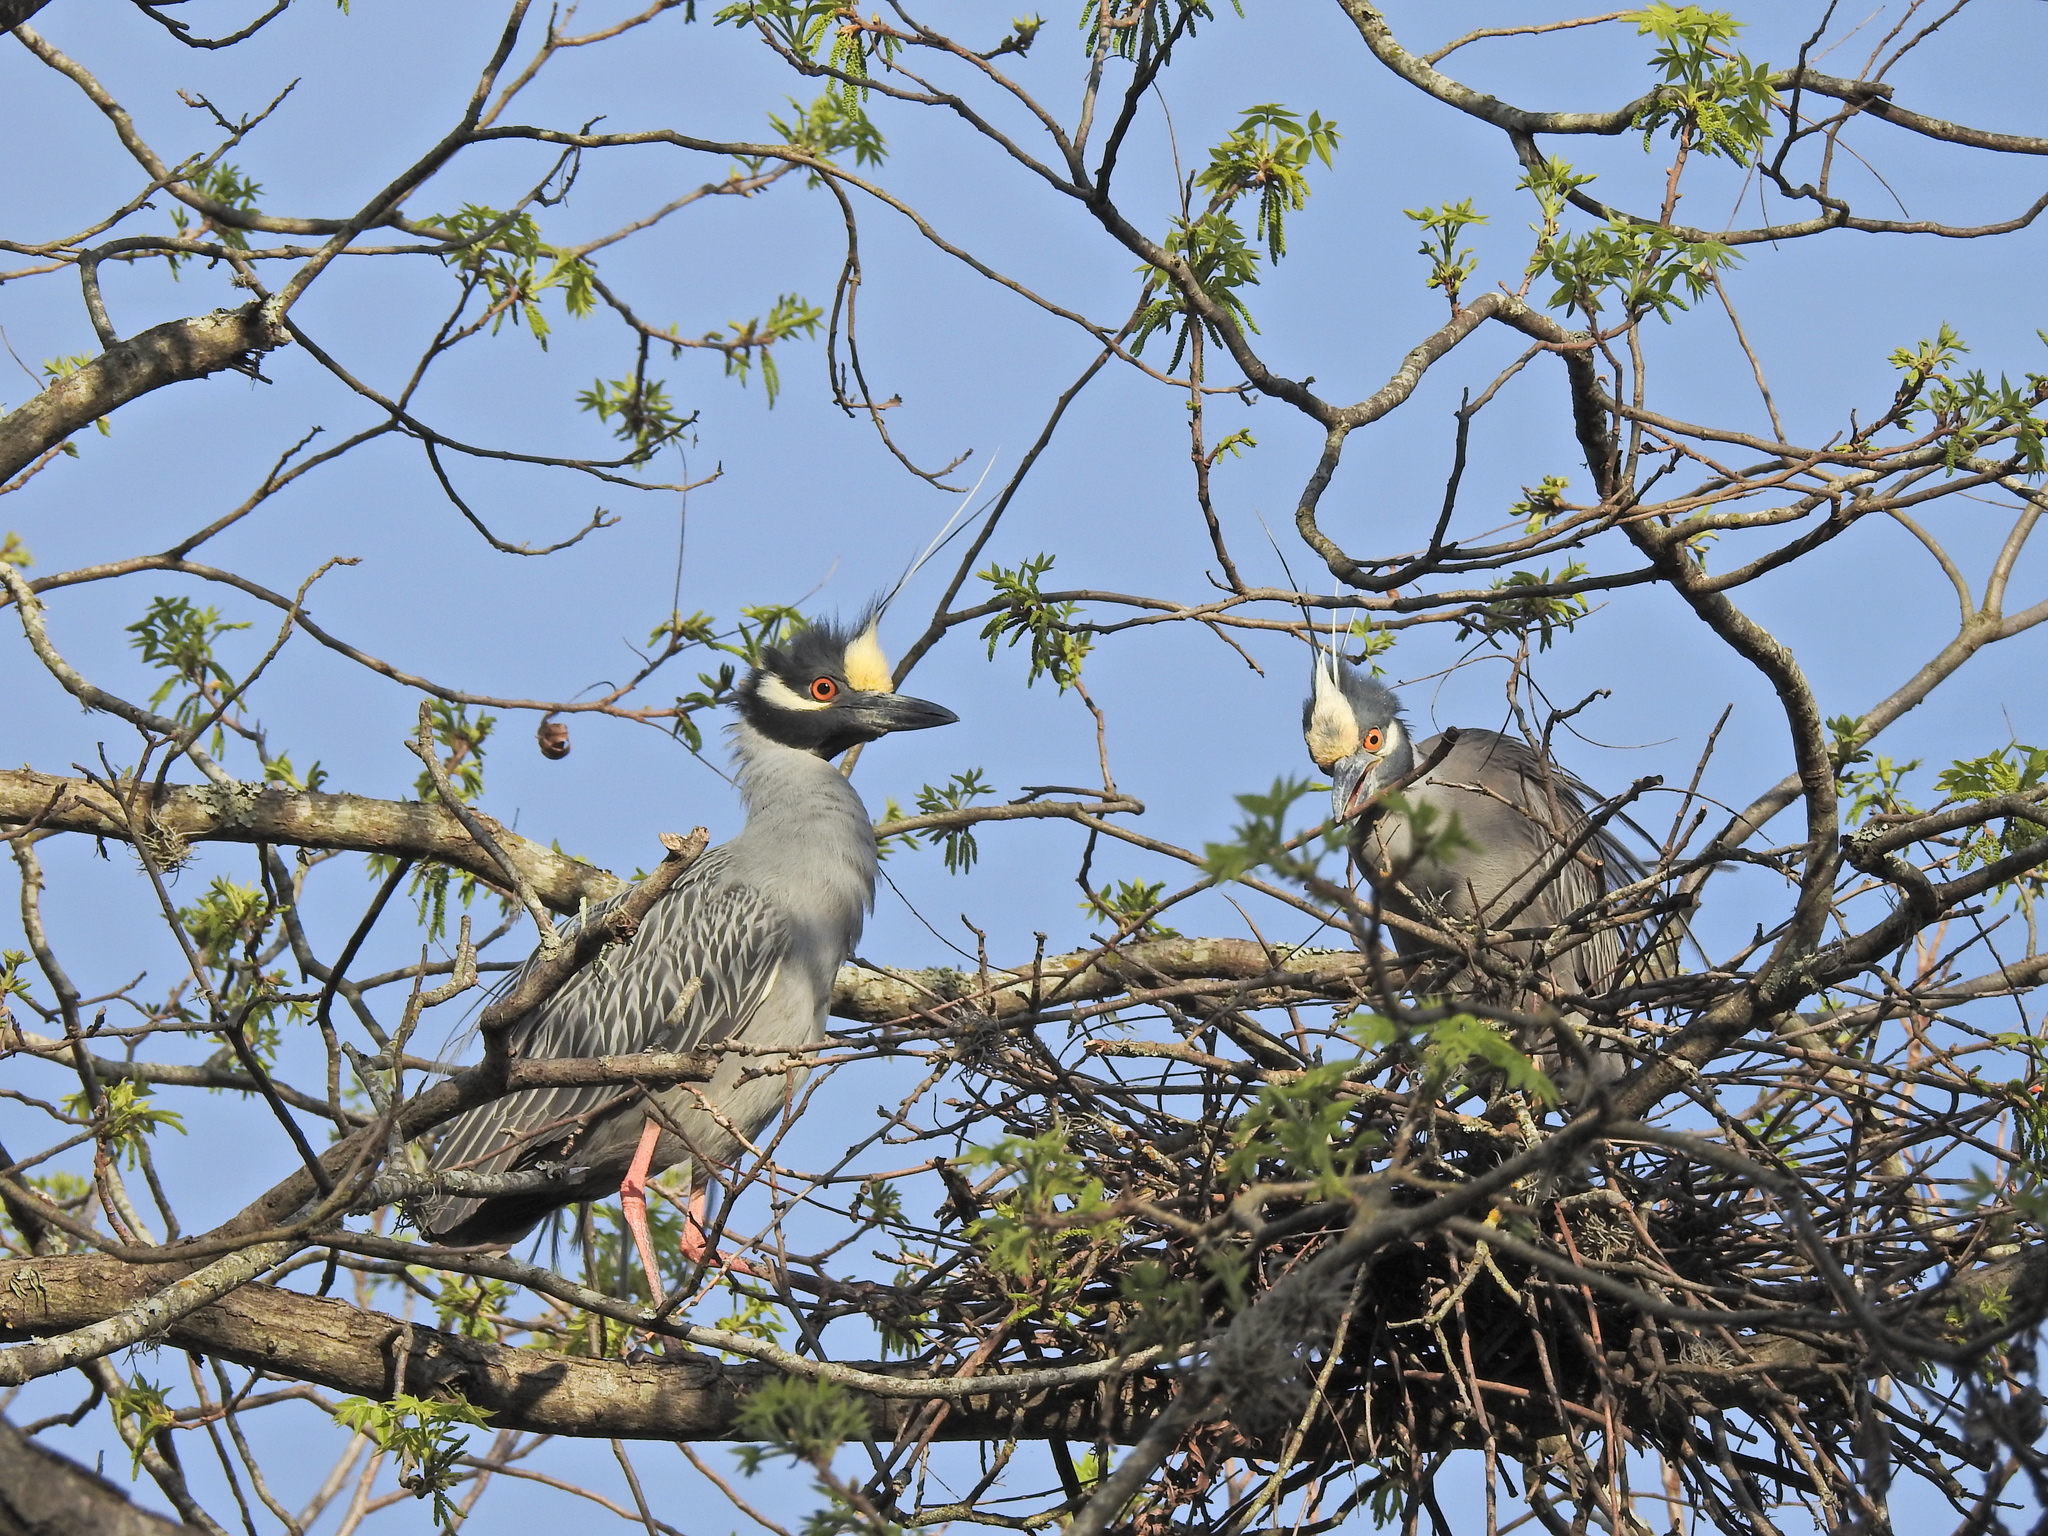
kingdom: Animalia
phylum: Chordata
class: Aves
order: Pelecaniformes
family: Ardeidae
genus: Nyctanassa
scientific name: Nyctanassa violacea
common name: Yellow-crowned night heron
